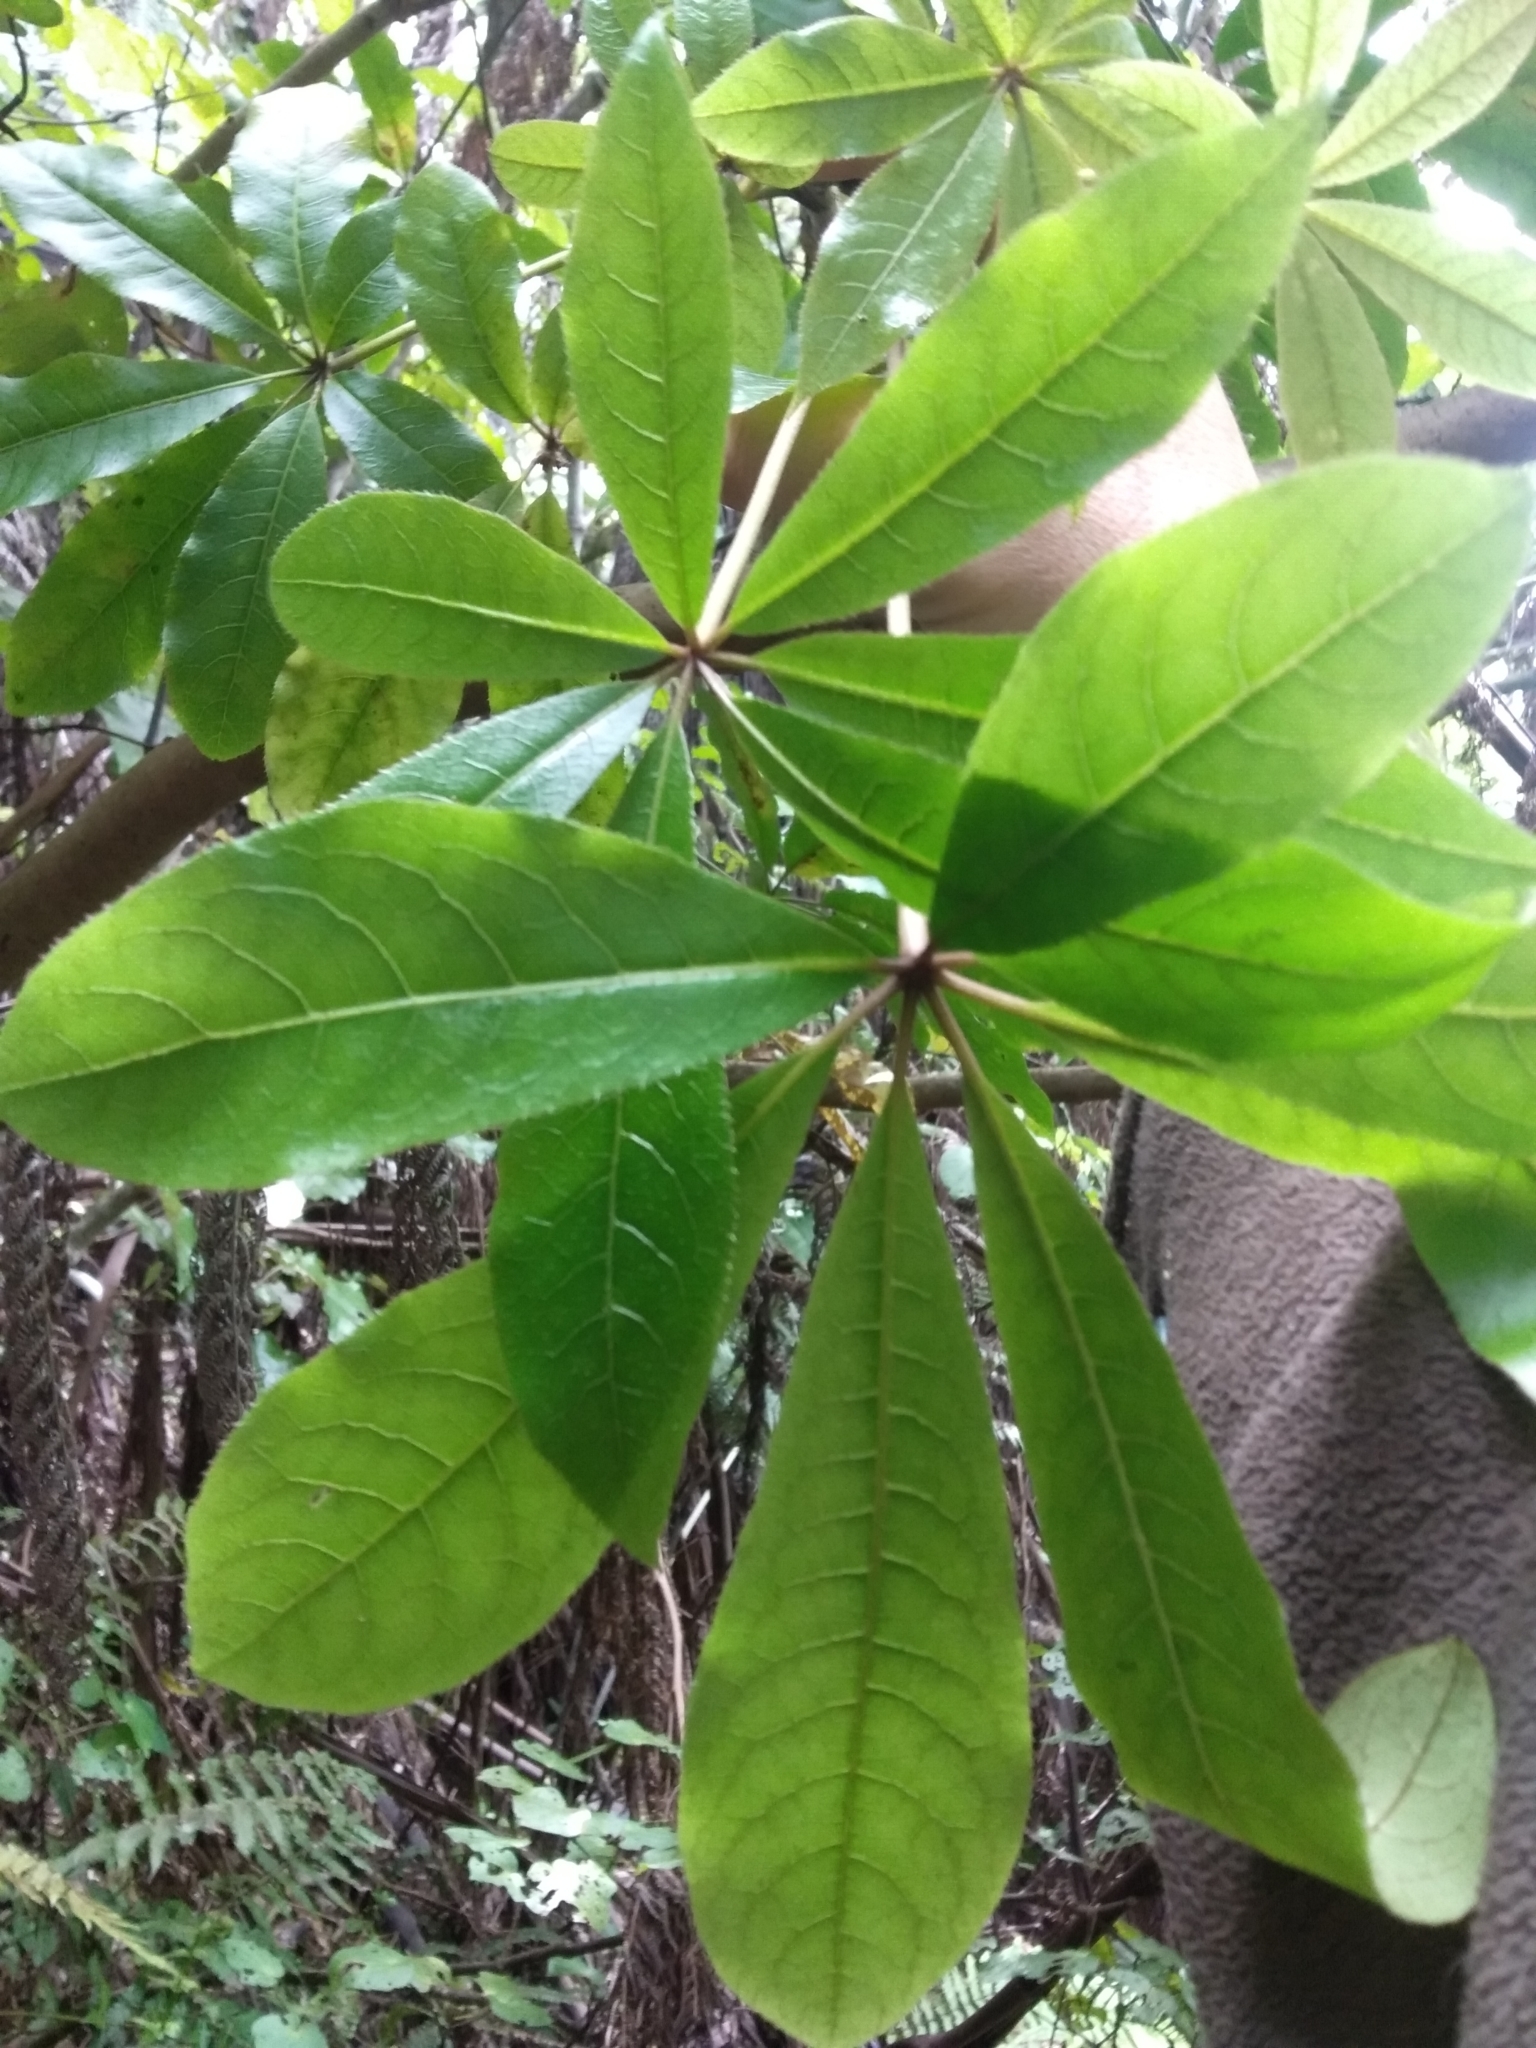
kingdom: Plantae
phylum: Tracheophyta
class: Magnoliopsida
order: Apiales
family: Araliaceae
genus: Schefflera
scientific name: Schefflera digitata
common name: Pate
